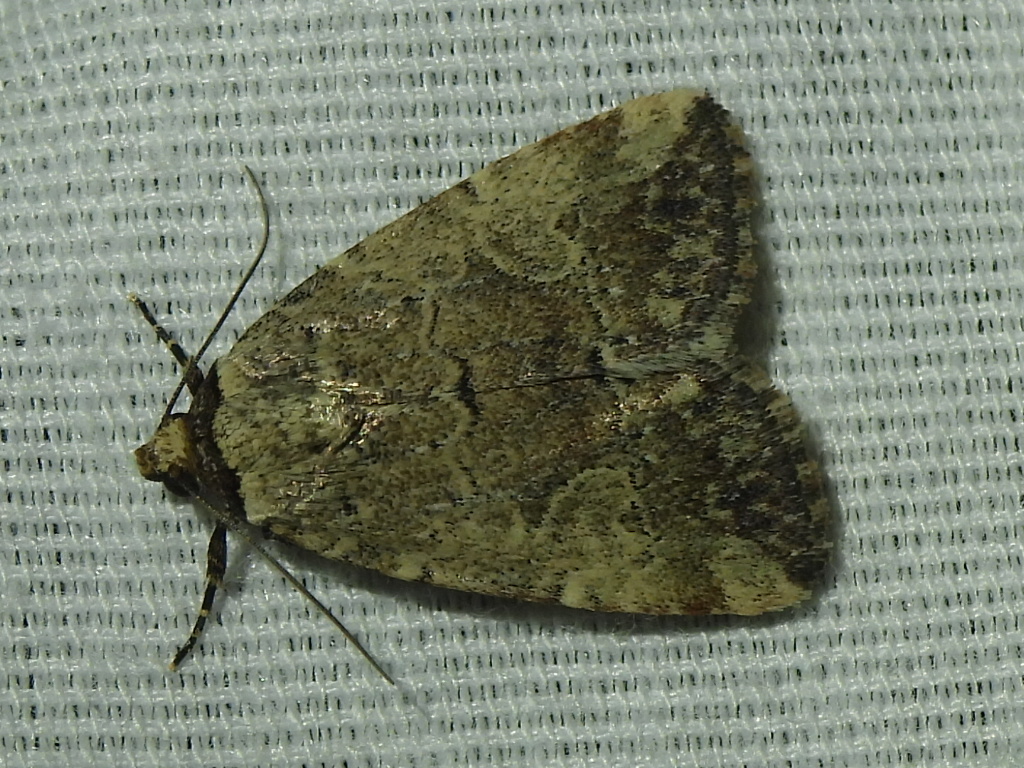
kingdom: Animalia
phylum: Arthropoda
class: Insecta
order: Lepidoptera
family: Noctuidae
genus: Elaphria
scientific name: Elaphria festivoides
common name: Festive midget
